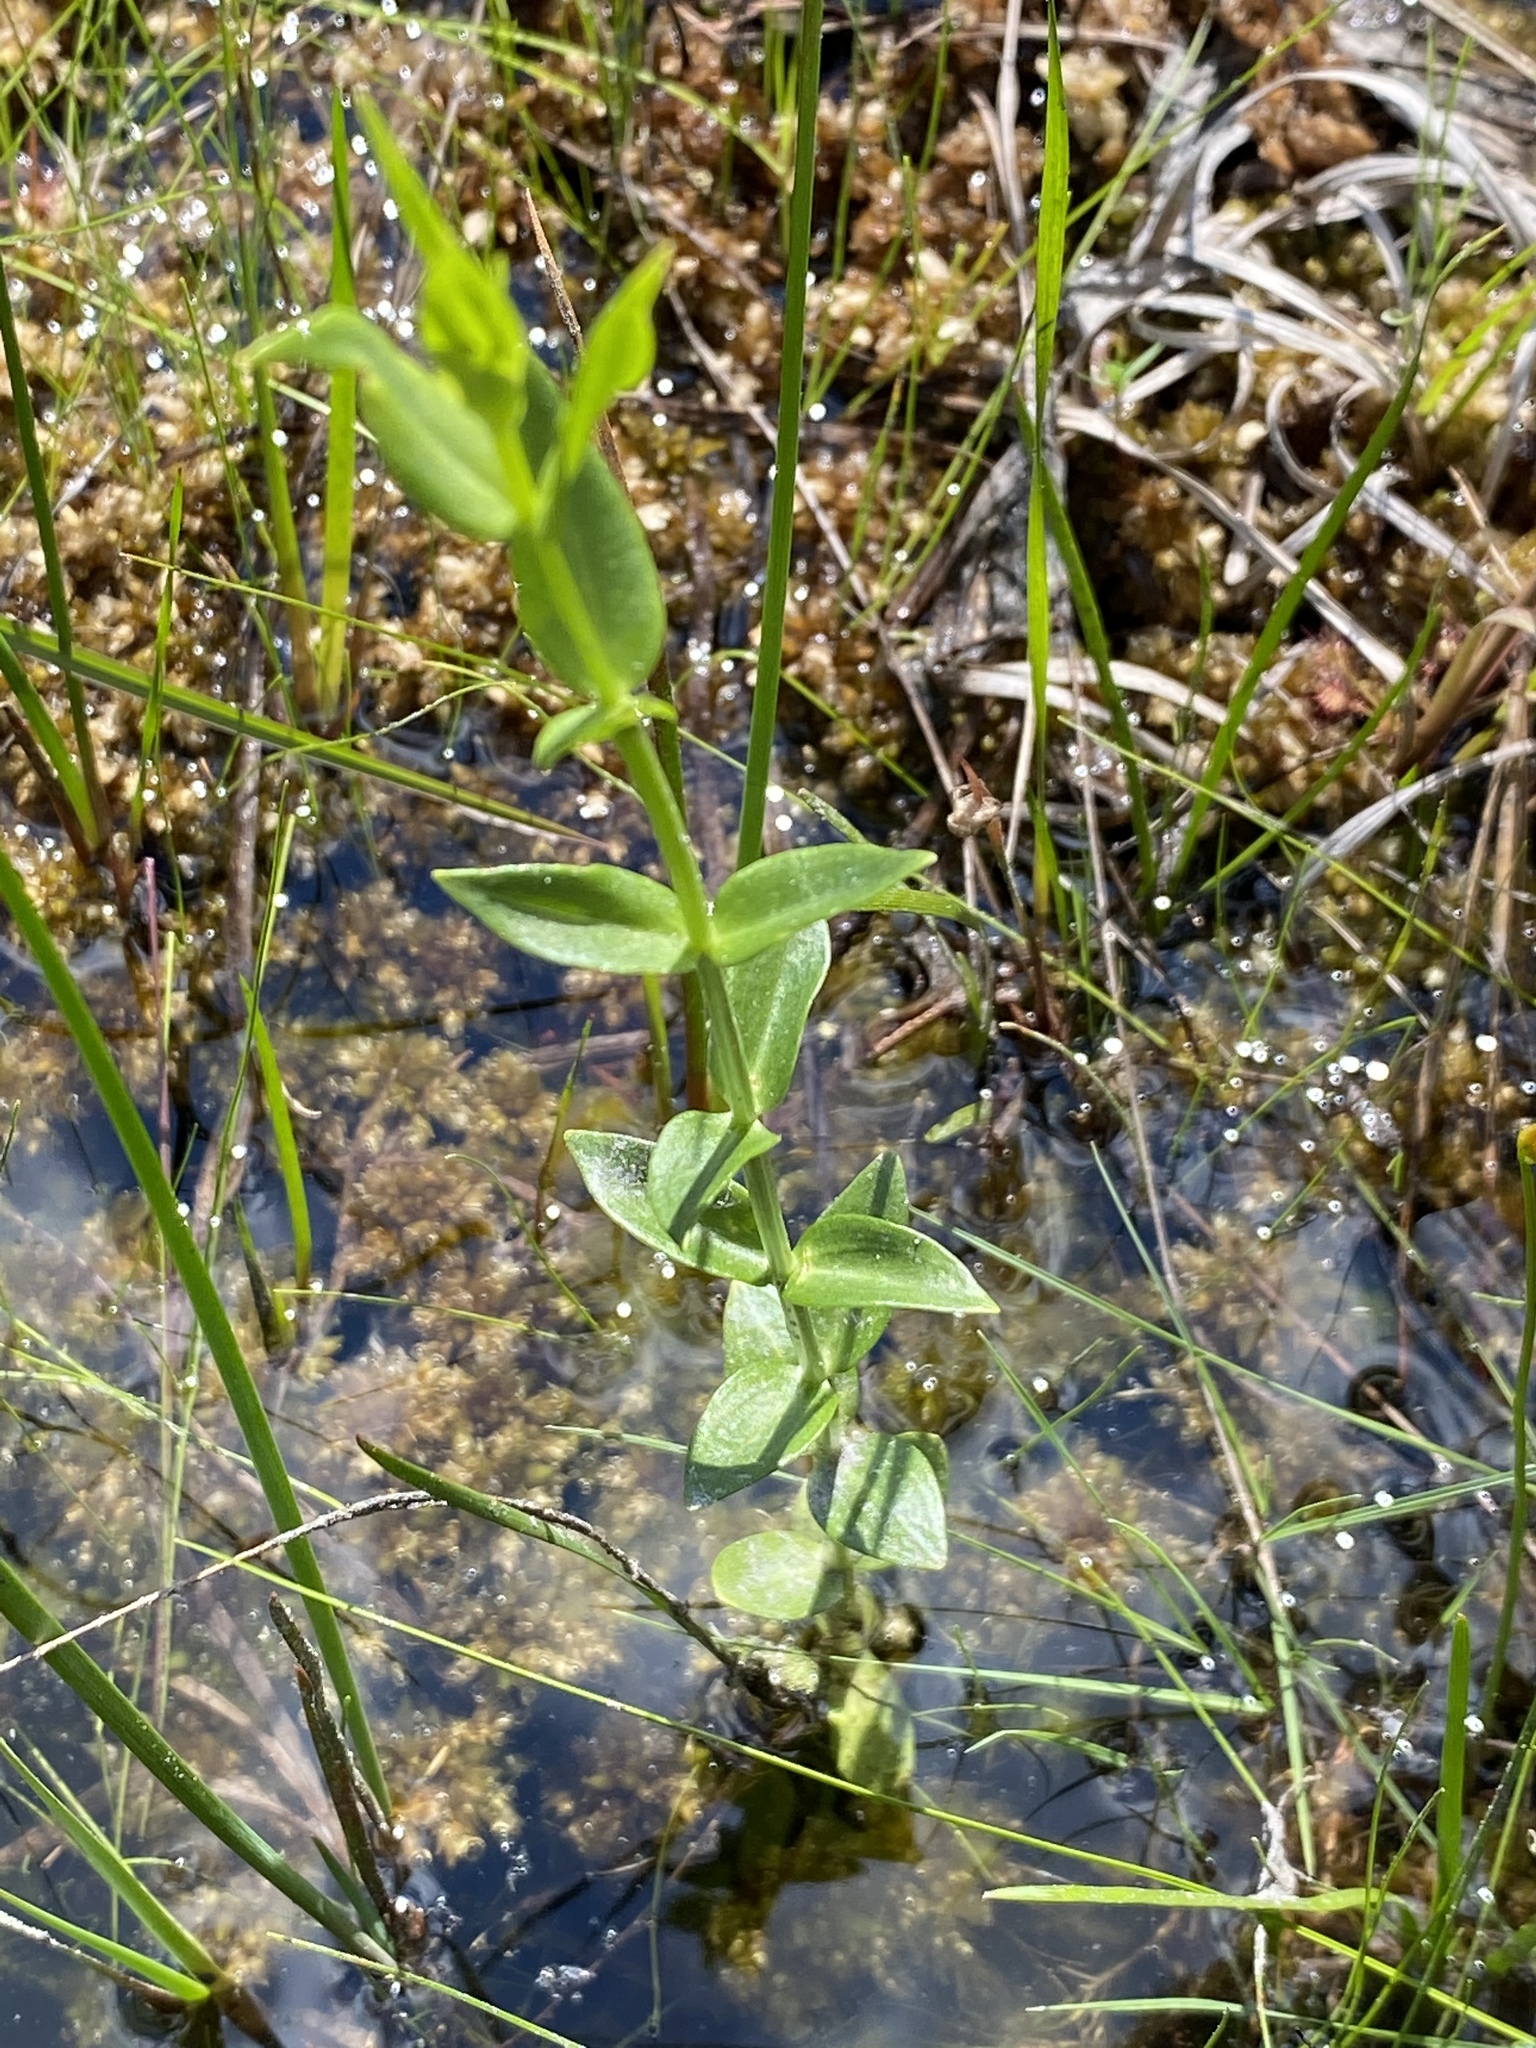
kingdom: Plantae
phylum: Tracheophyta
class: Magnoliopsida
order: Gentianales
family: Gentianaceae
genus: Sabatia
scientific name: Sabatia difformis
